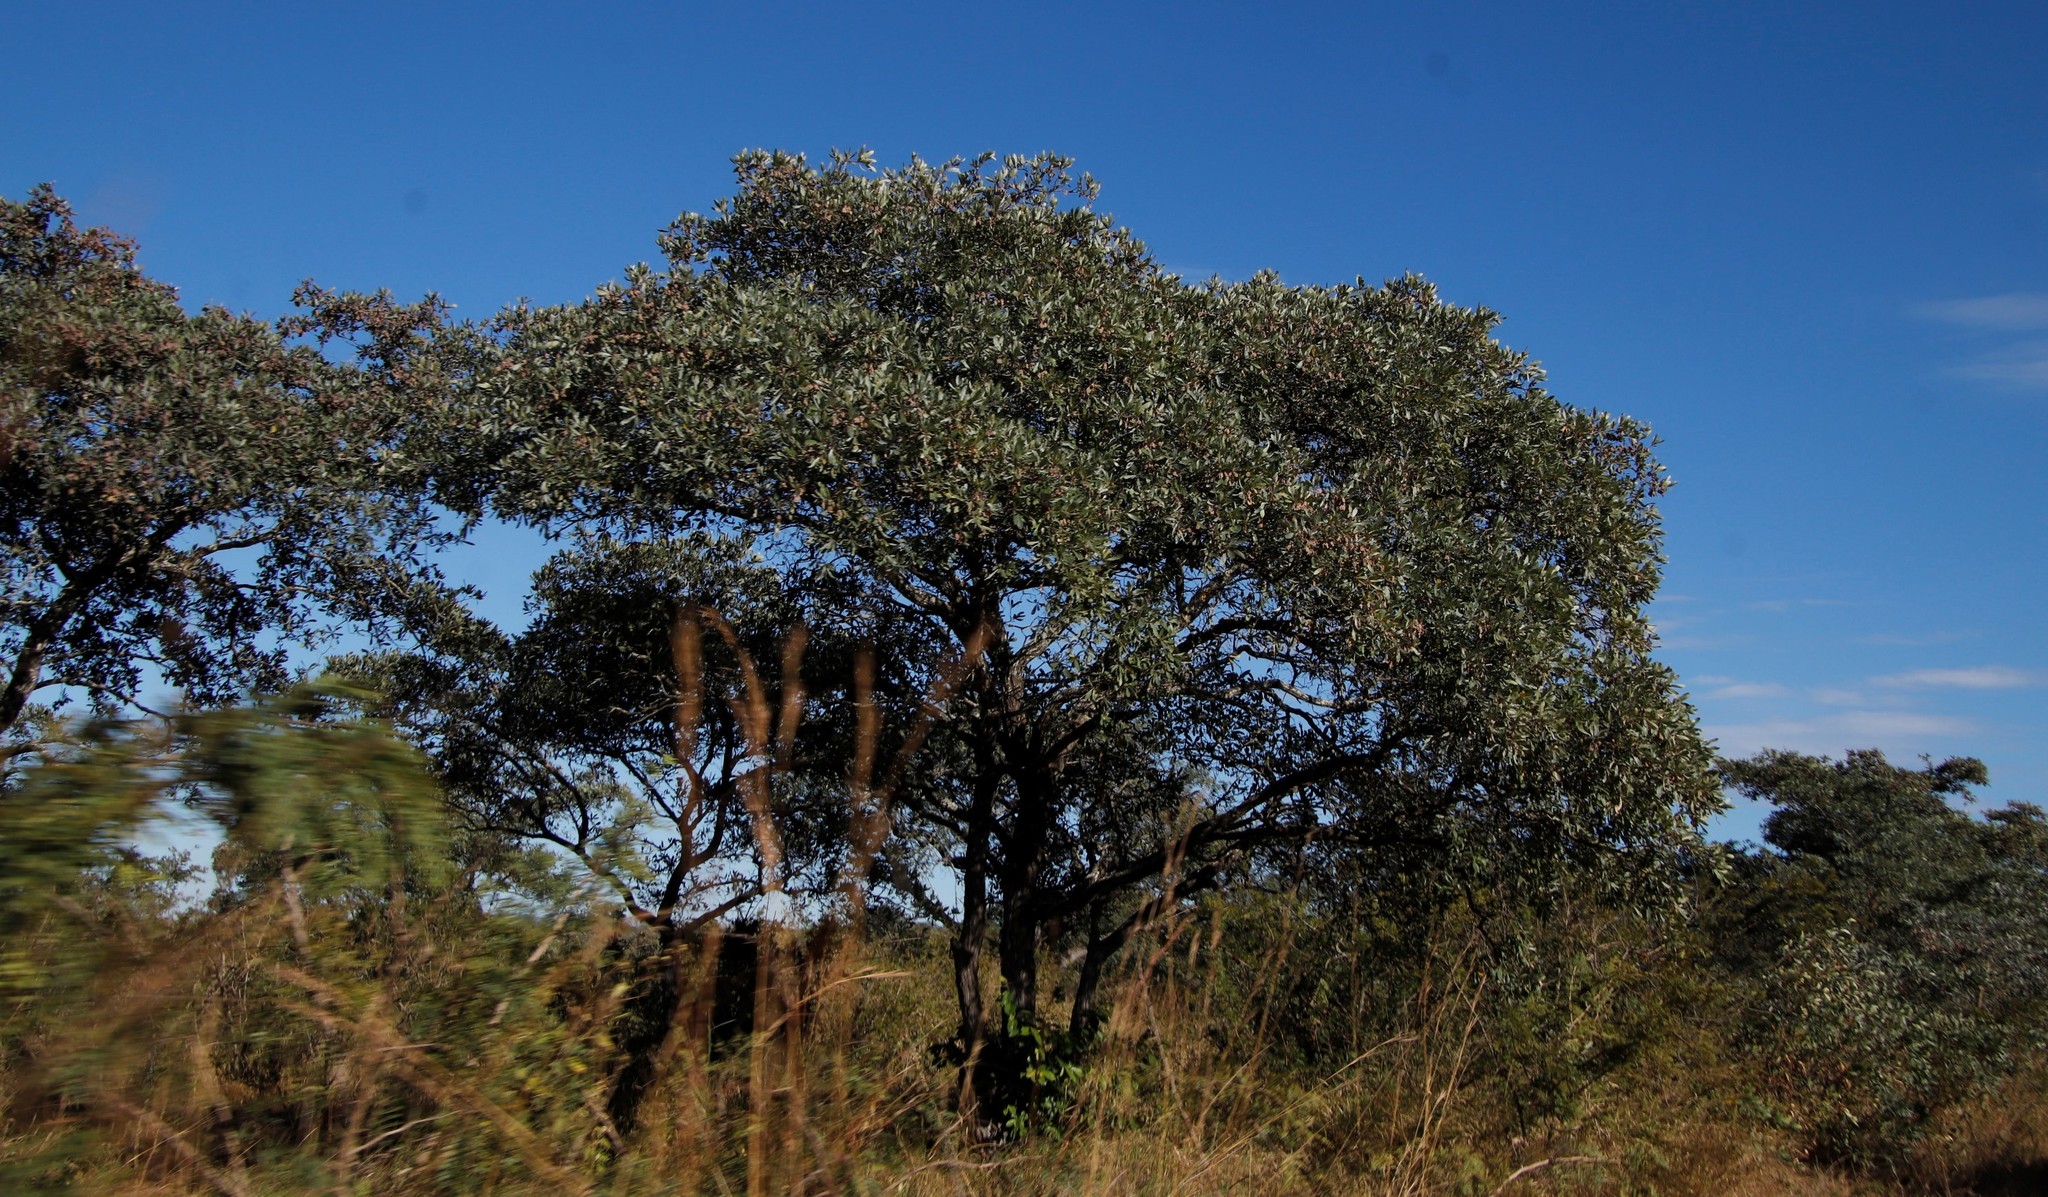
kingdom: Plantae
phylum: Tracheophyta
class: Magnoliopsida
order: Myrtales
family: Combretaceae
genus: Terminalia
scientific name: Terminalia sericea
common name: Clusterleaf
